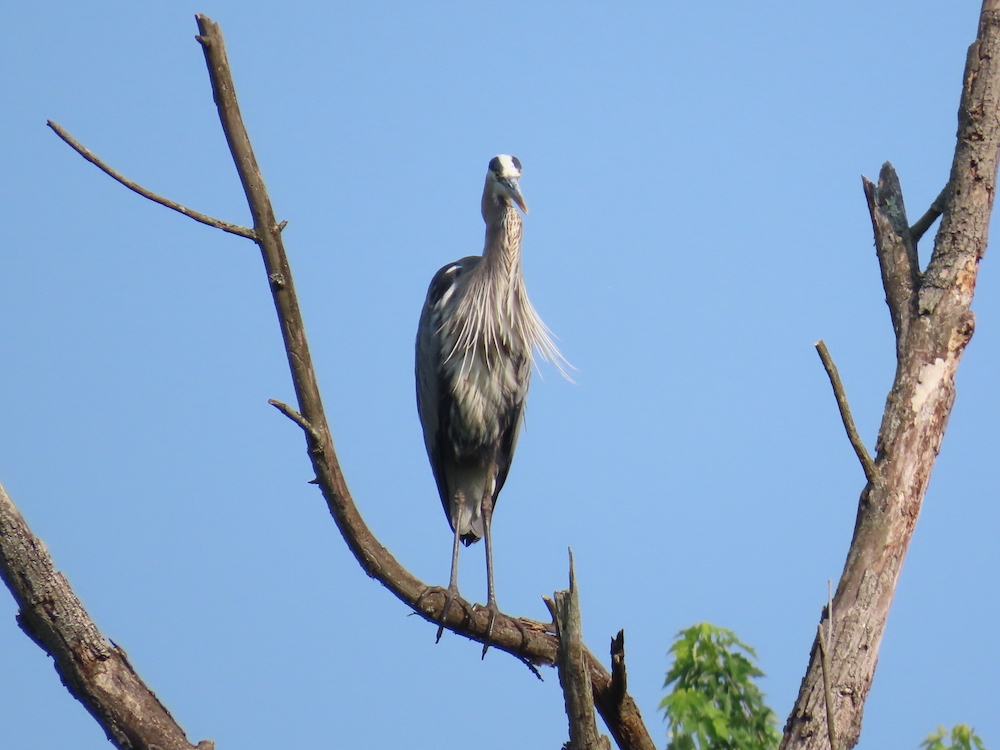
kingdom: Animalia
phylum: Chordata
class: Aves
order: Pelecaniformes
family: Ardeidae
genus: Ardea
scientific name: Ardea herodias
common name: Great blue heron
